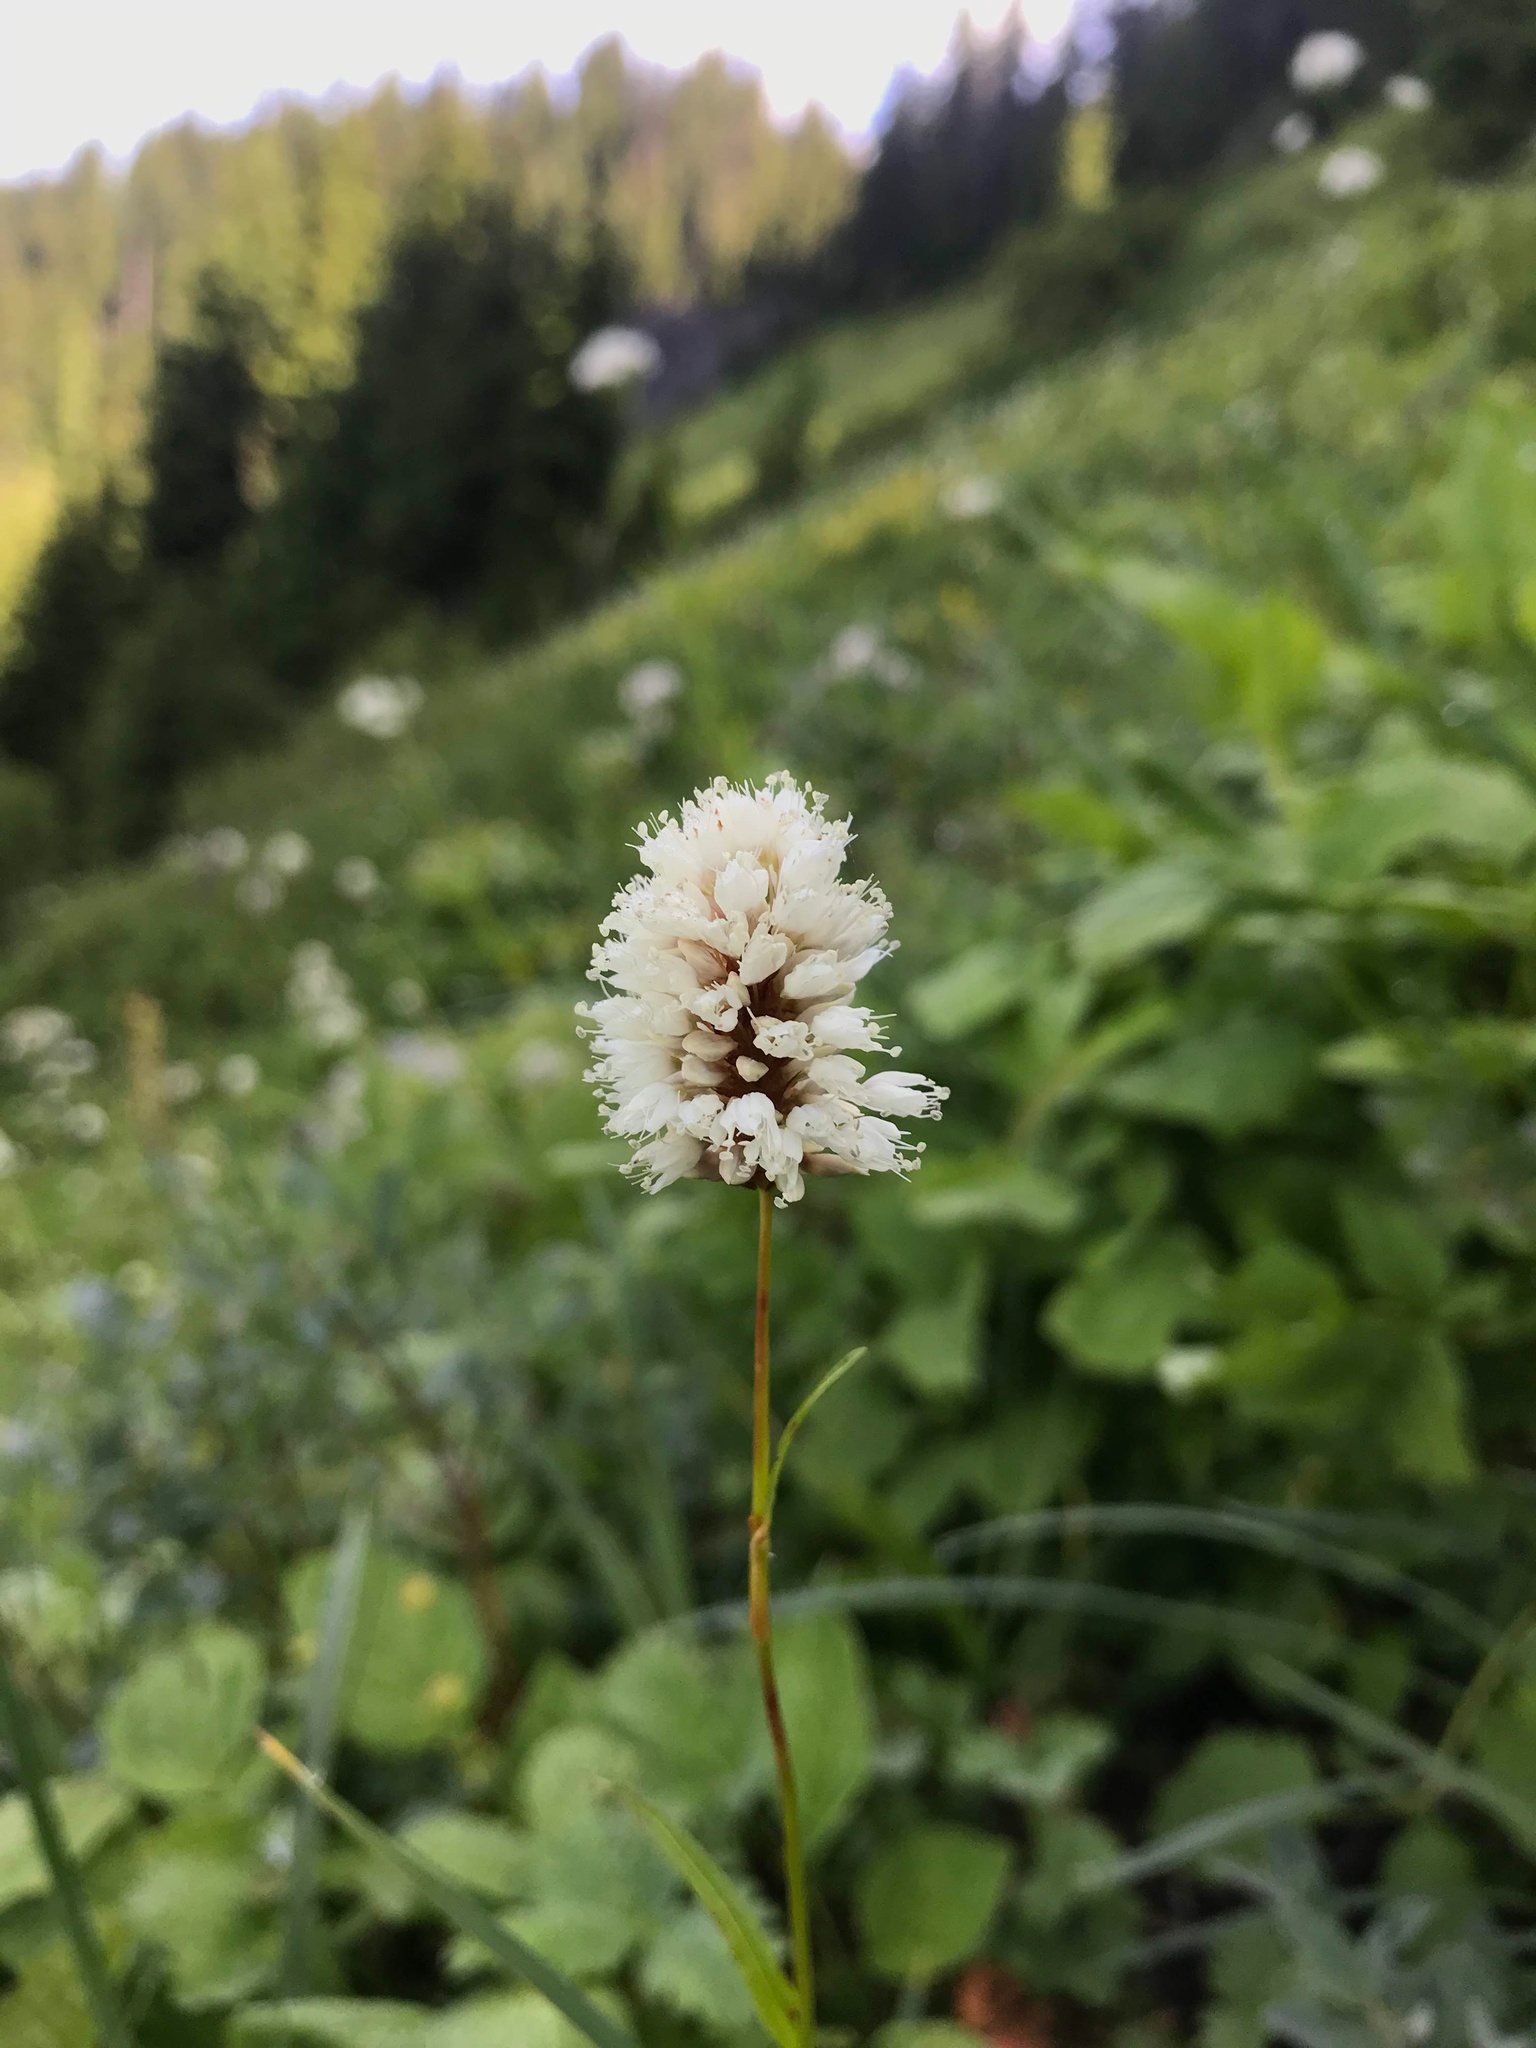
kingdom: Plantae
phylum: Tracheophyta
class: Magnoliopsida
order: Caryophyllales
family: Polygonaceae
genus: Bistorta
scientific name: Bistorta bistortoides
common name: American bistort
